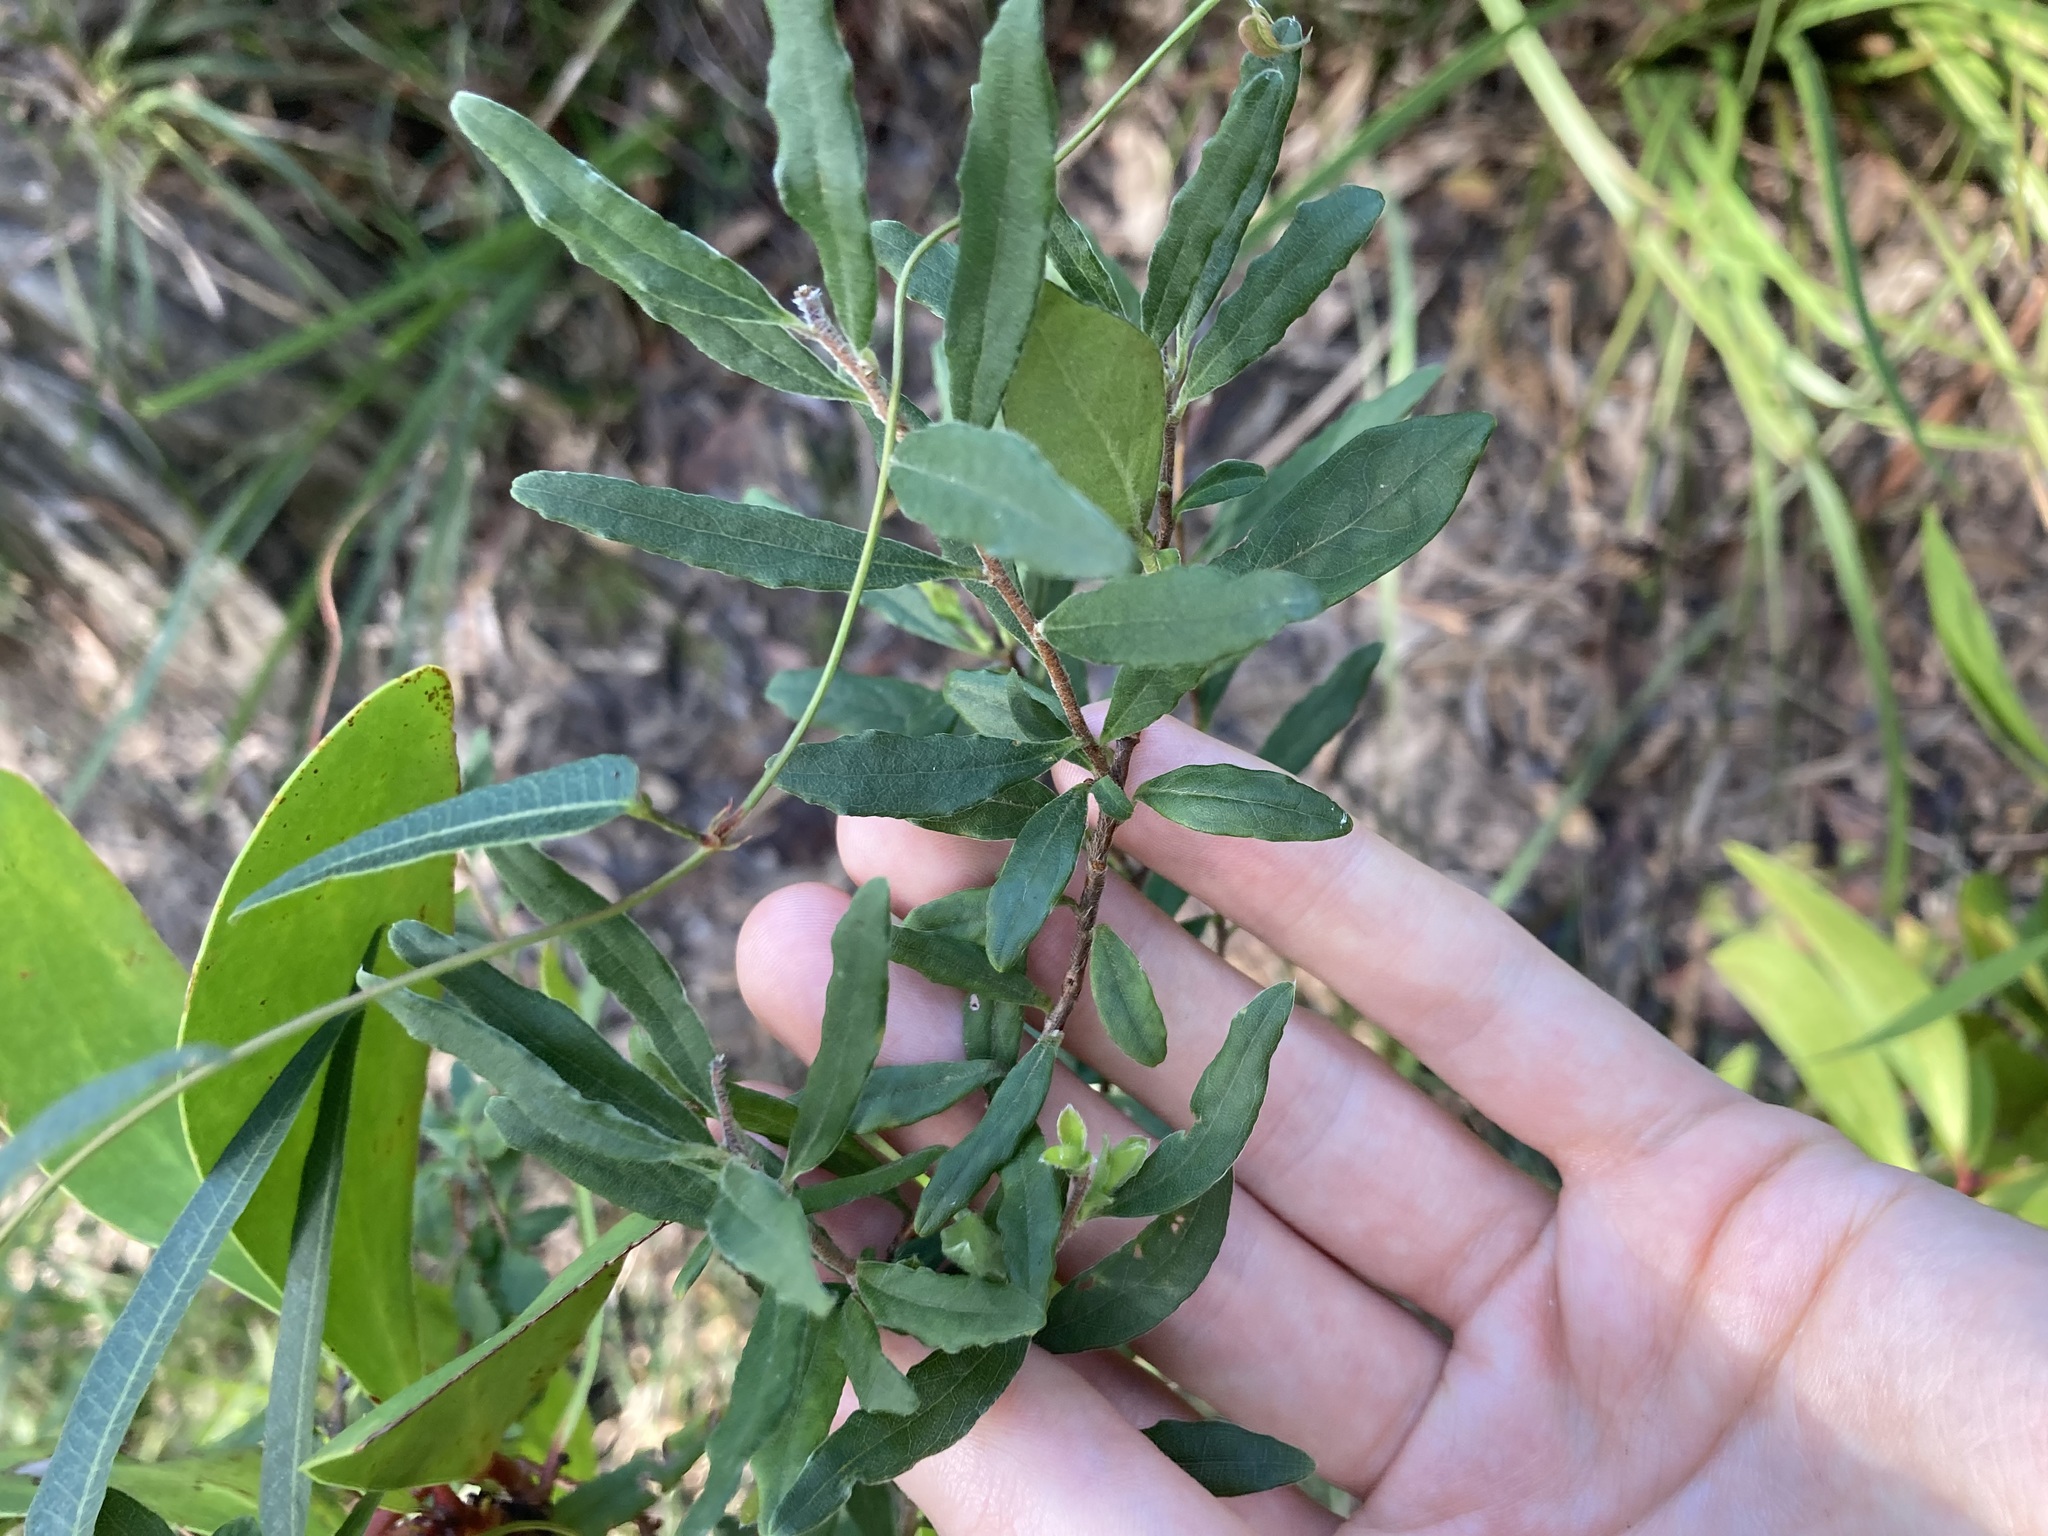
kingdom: Plantae
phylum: Tracheophyta
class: Magnoliopsida
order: Apiales
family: Pittosporaceae
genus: Billardiera
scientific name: Billardiera scandens
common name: Apple-berry
